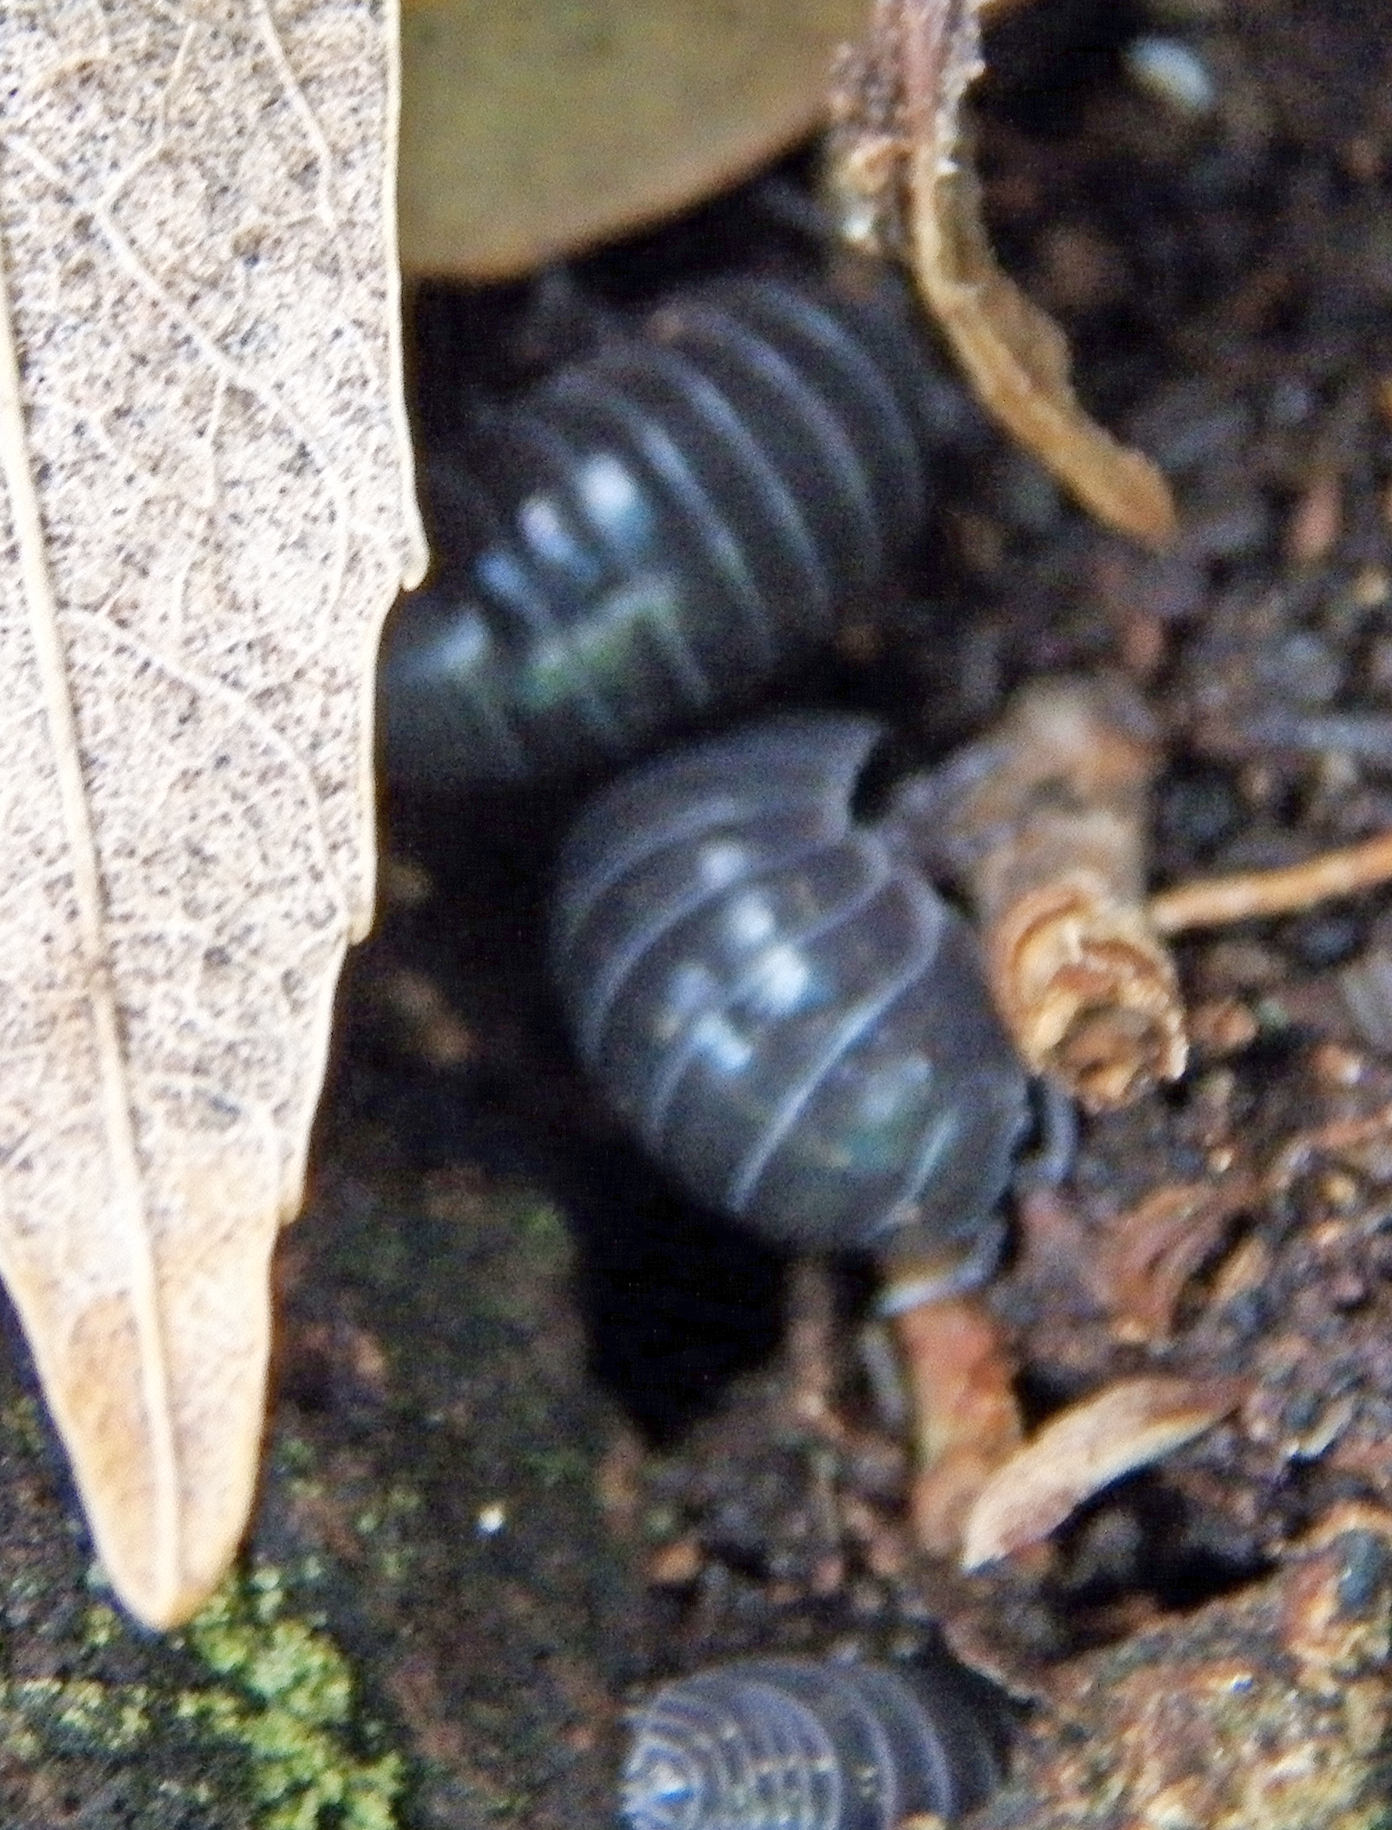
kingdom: Animalia
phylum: Arthropoda
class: Malacostraca
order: Isopoda
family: Armadillidiidae
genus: Armadillidium
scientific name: Armadillidium vulgare
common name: Common pill woodlouse
